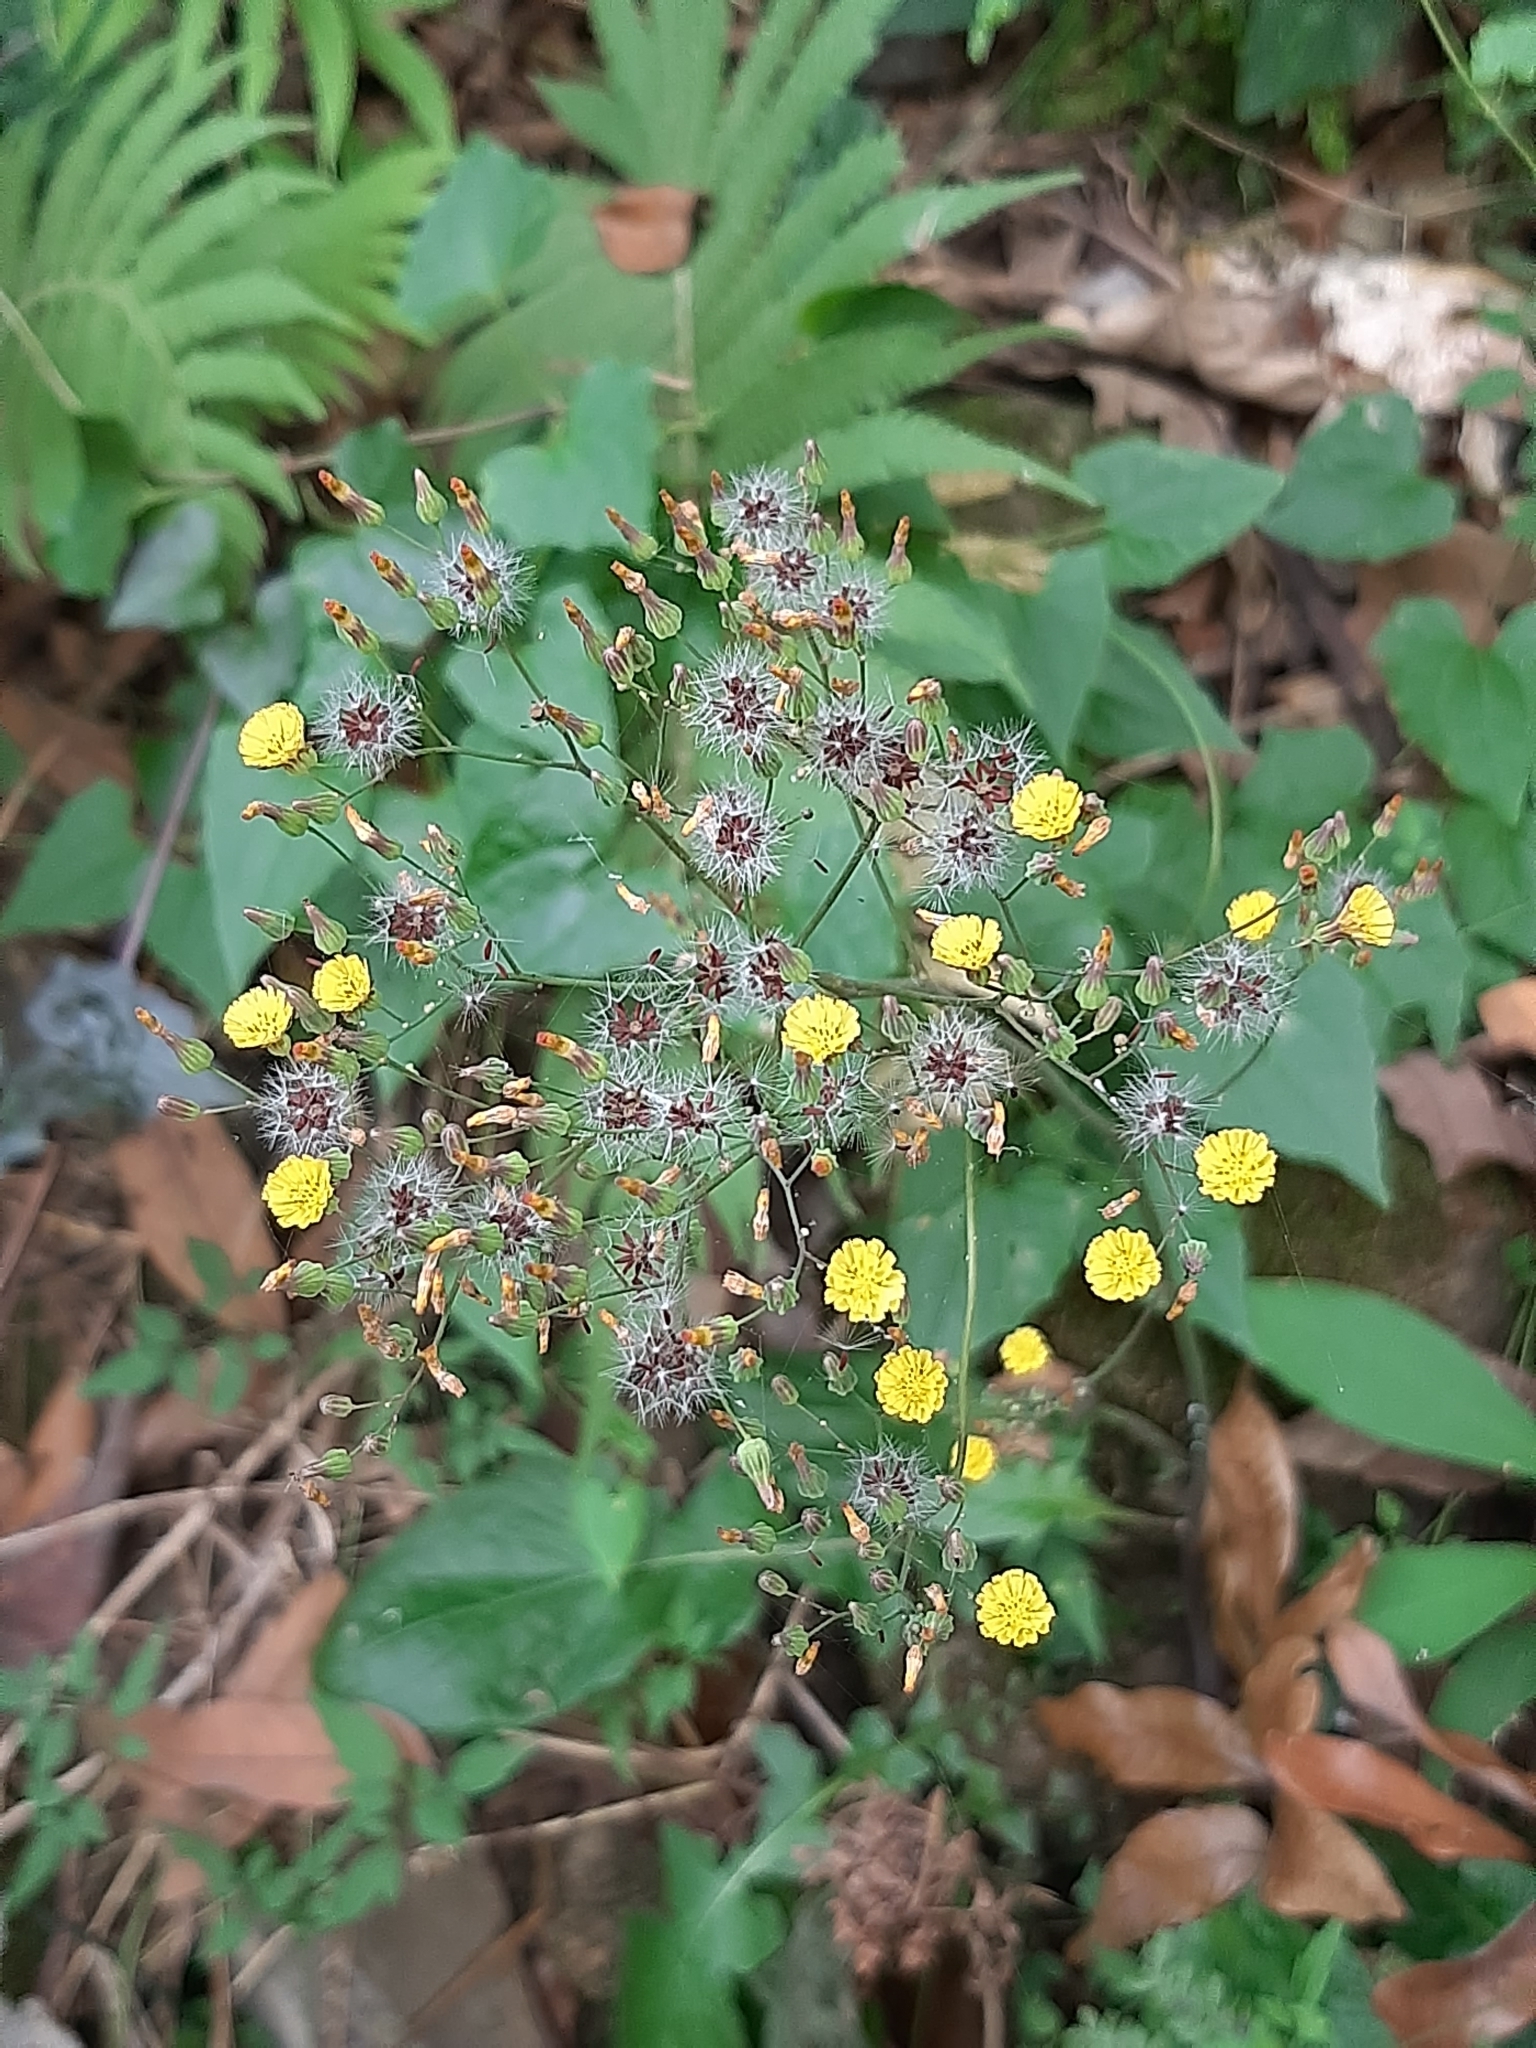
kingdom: Plantae
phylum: Tracheophyta
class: Magnoliopsida
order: Asterales
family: Asteraceae
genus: Youngia
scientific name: Youngia japonica
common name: Oriental false hawksbeard
